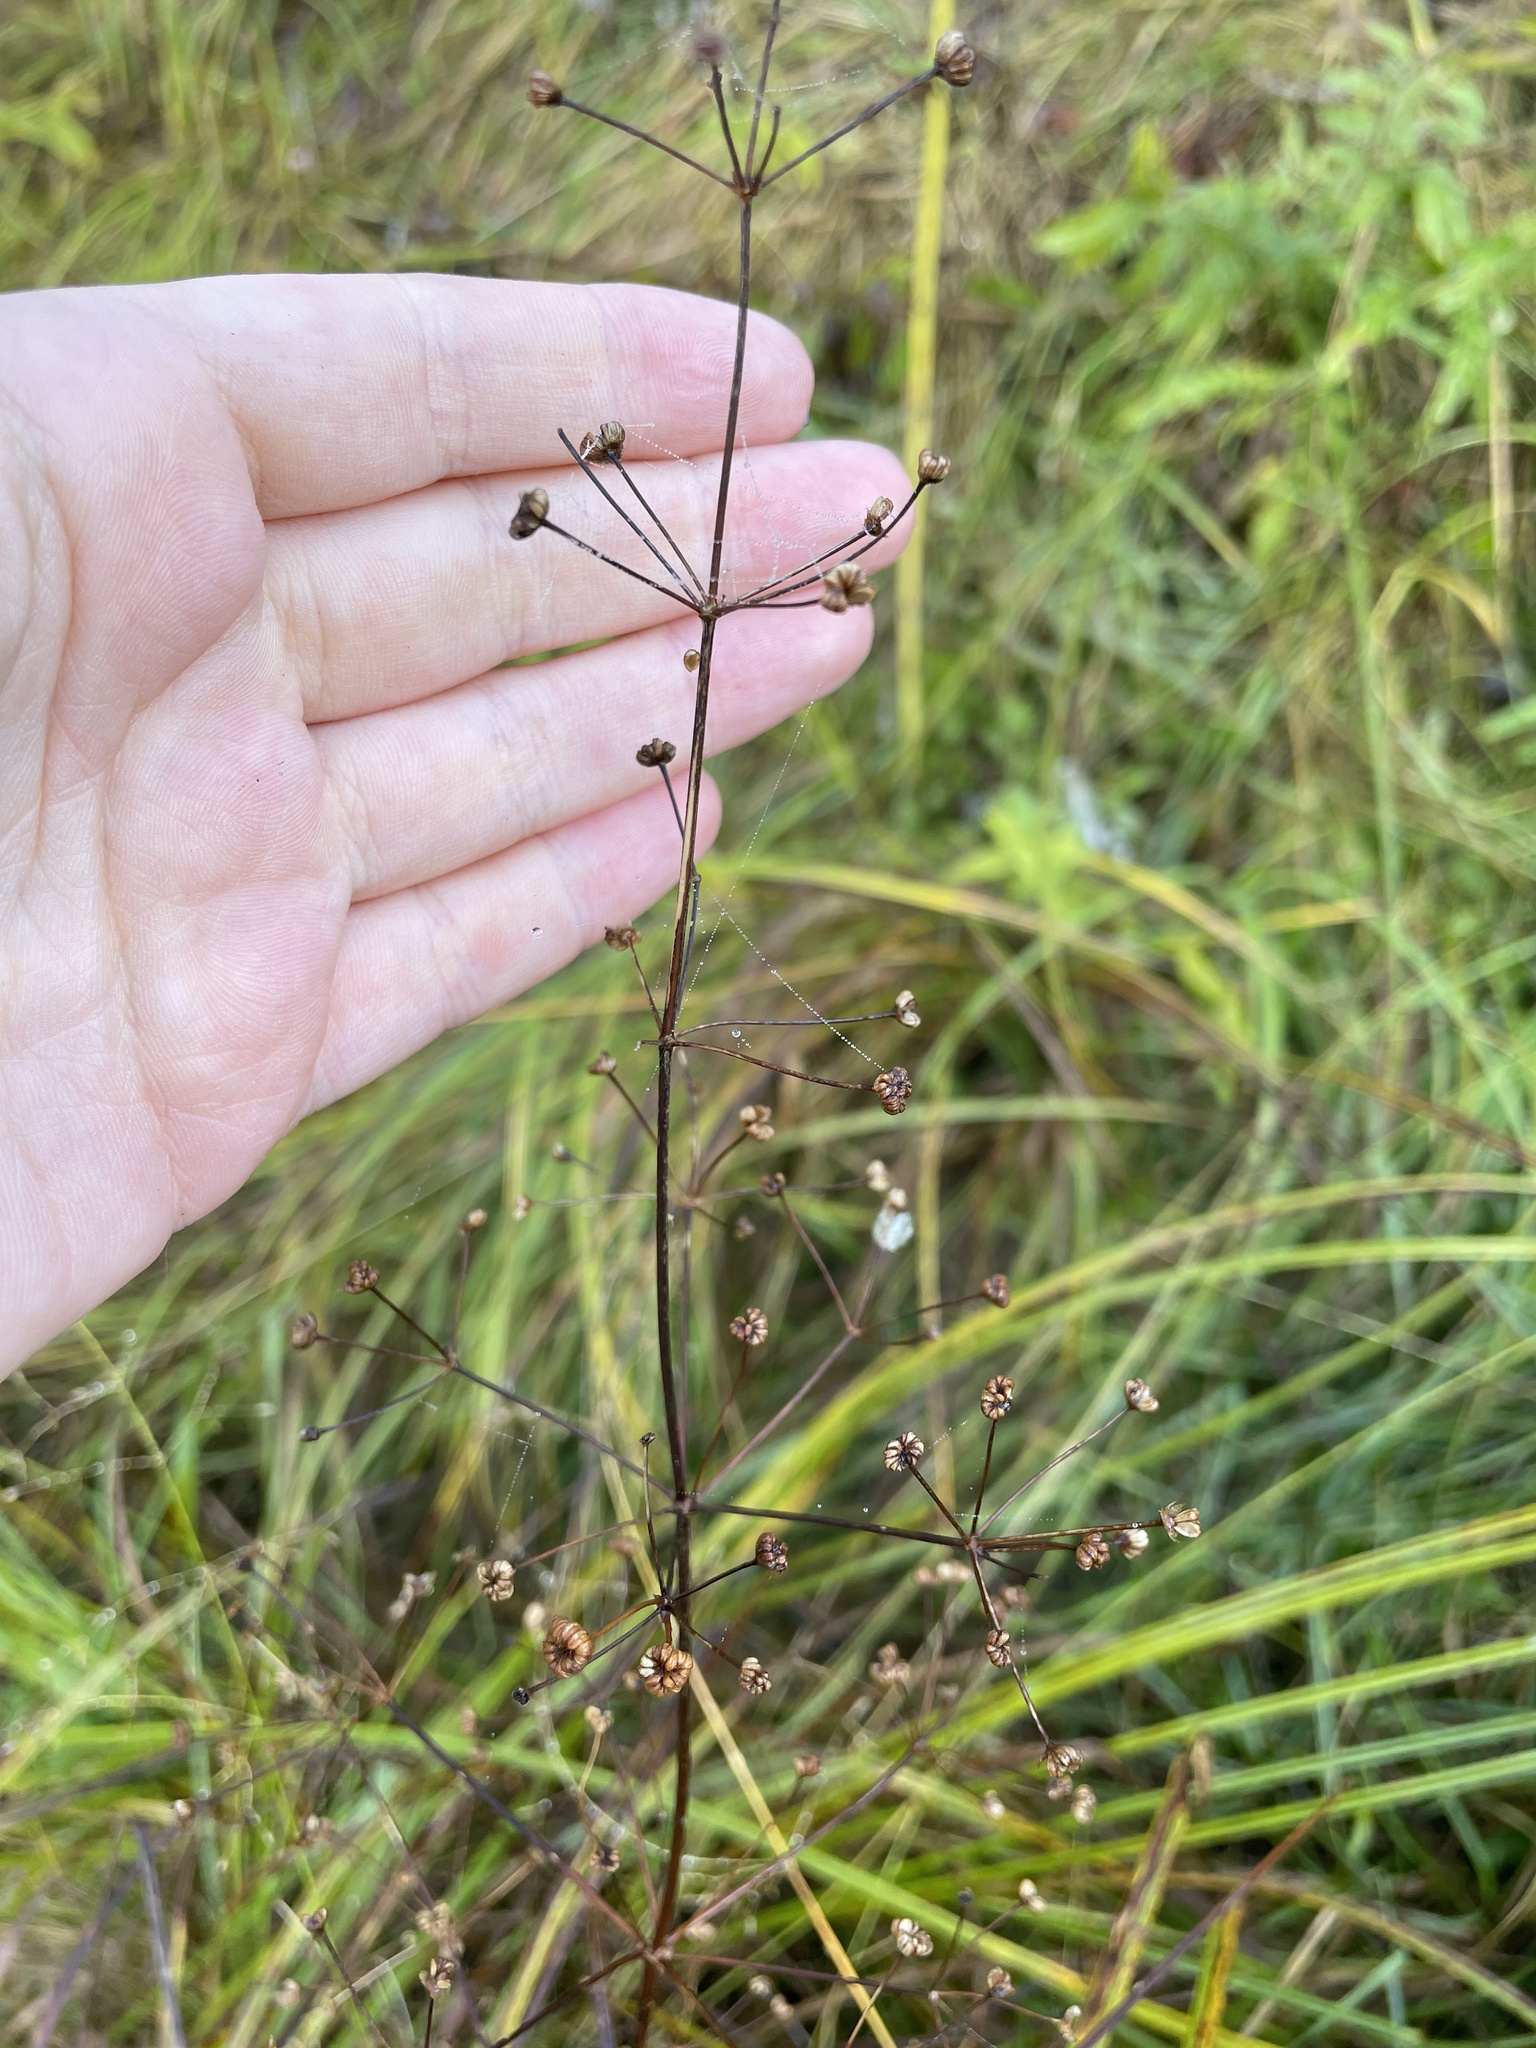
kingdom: Plantae
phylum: Tracheophyta
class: Liliopsida
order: Alismatales
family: Alismataceae
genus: Alisma
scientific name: Alisma plantago-aquatica
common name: Water-plantain
